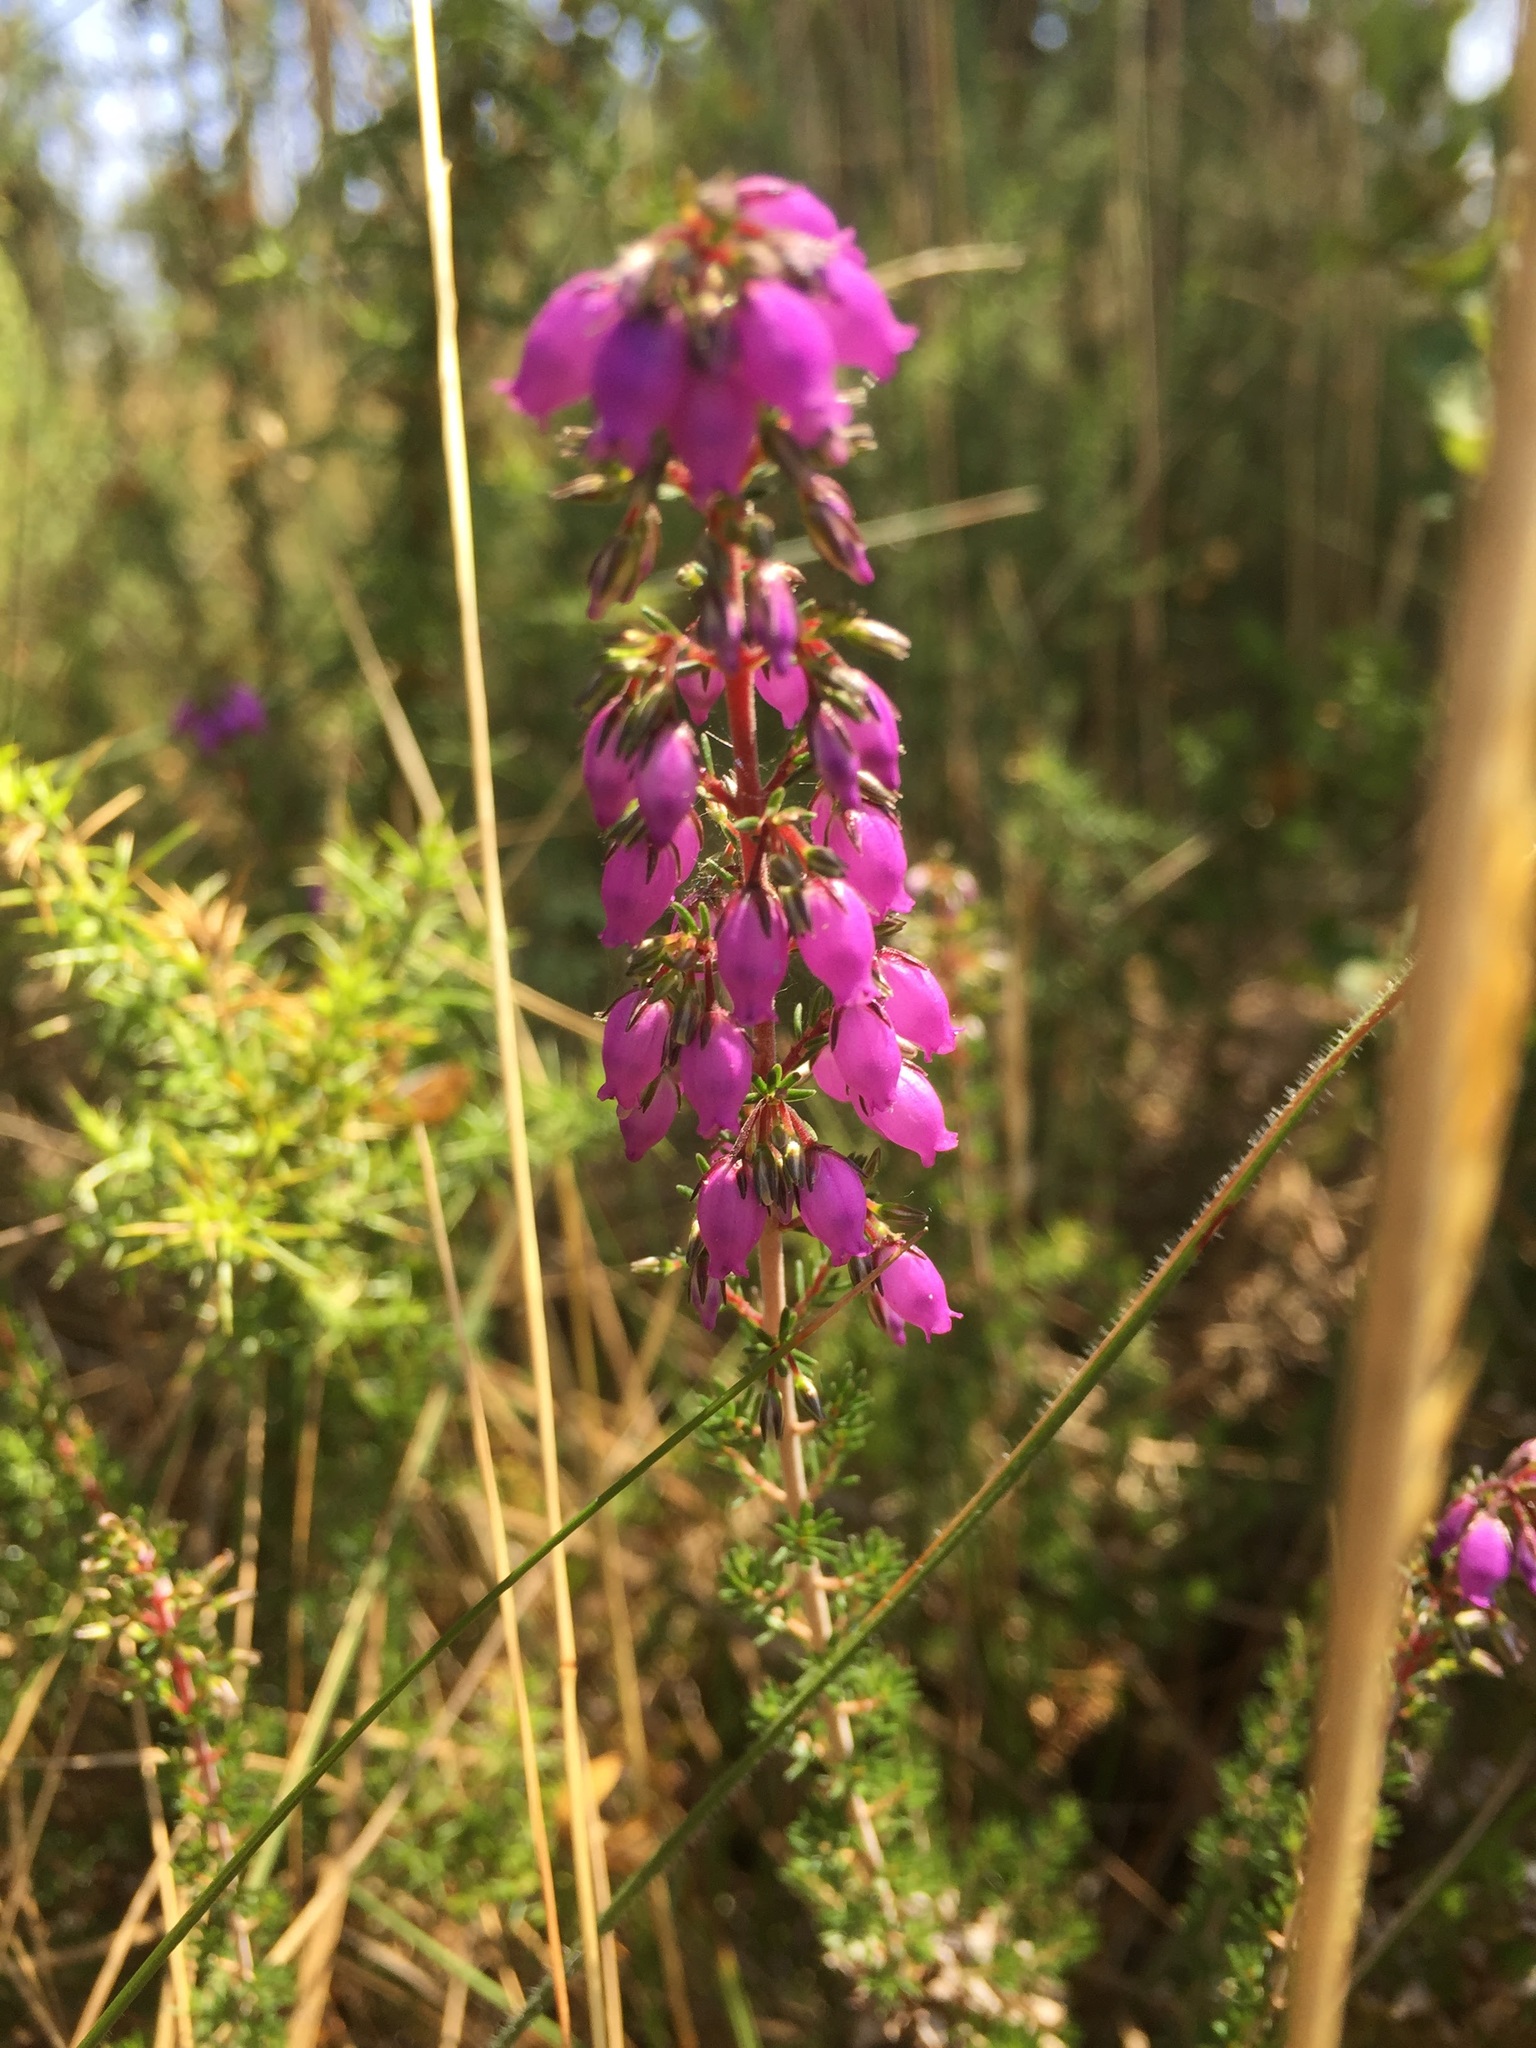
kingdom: Plantae
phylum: Tracheophyta
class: Magnoliopsida
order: Ericales
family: Ericaceae
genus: Erica
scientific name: Erica cinerea
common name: Bell heather
